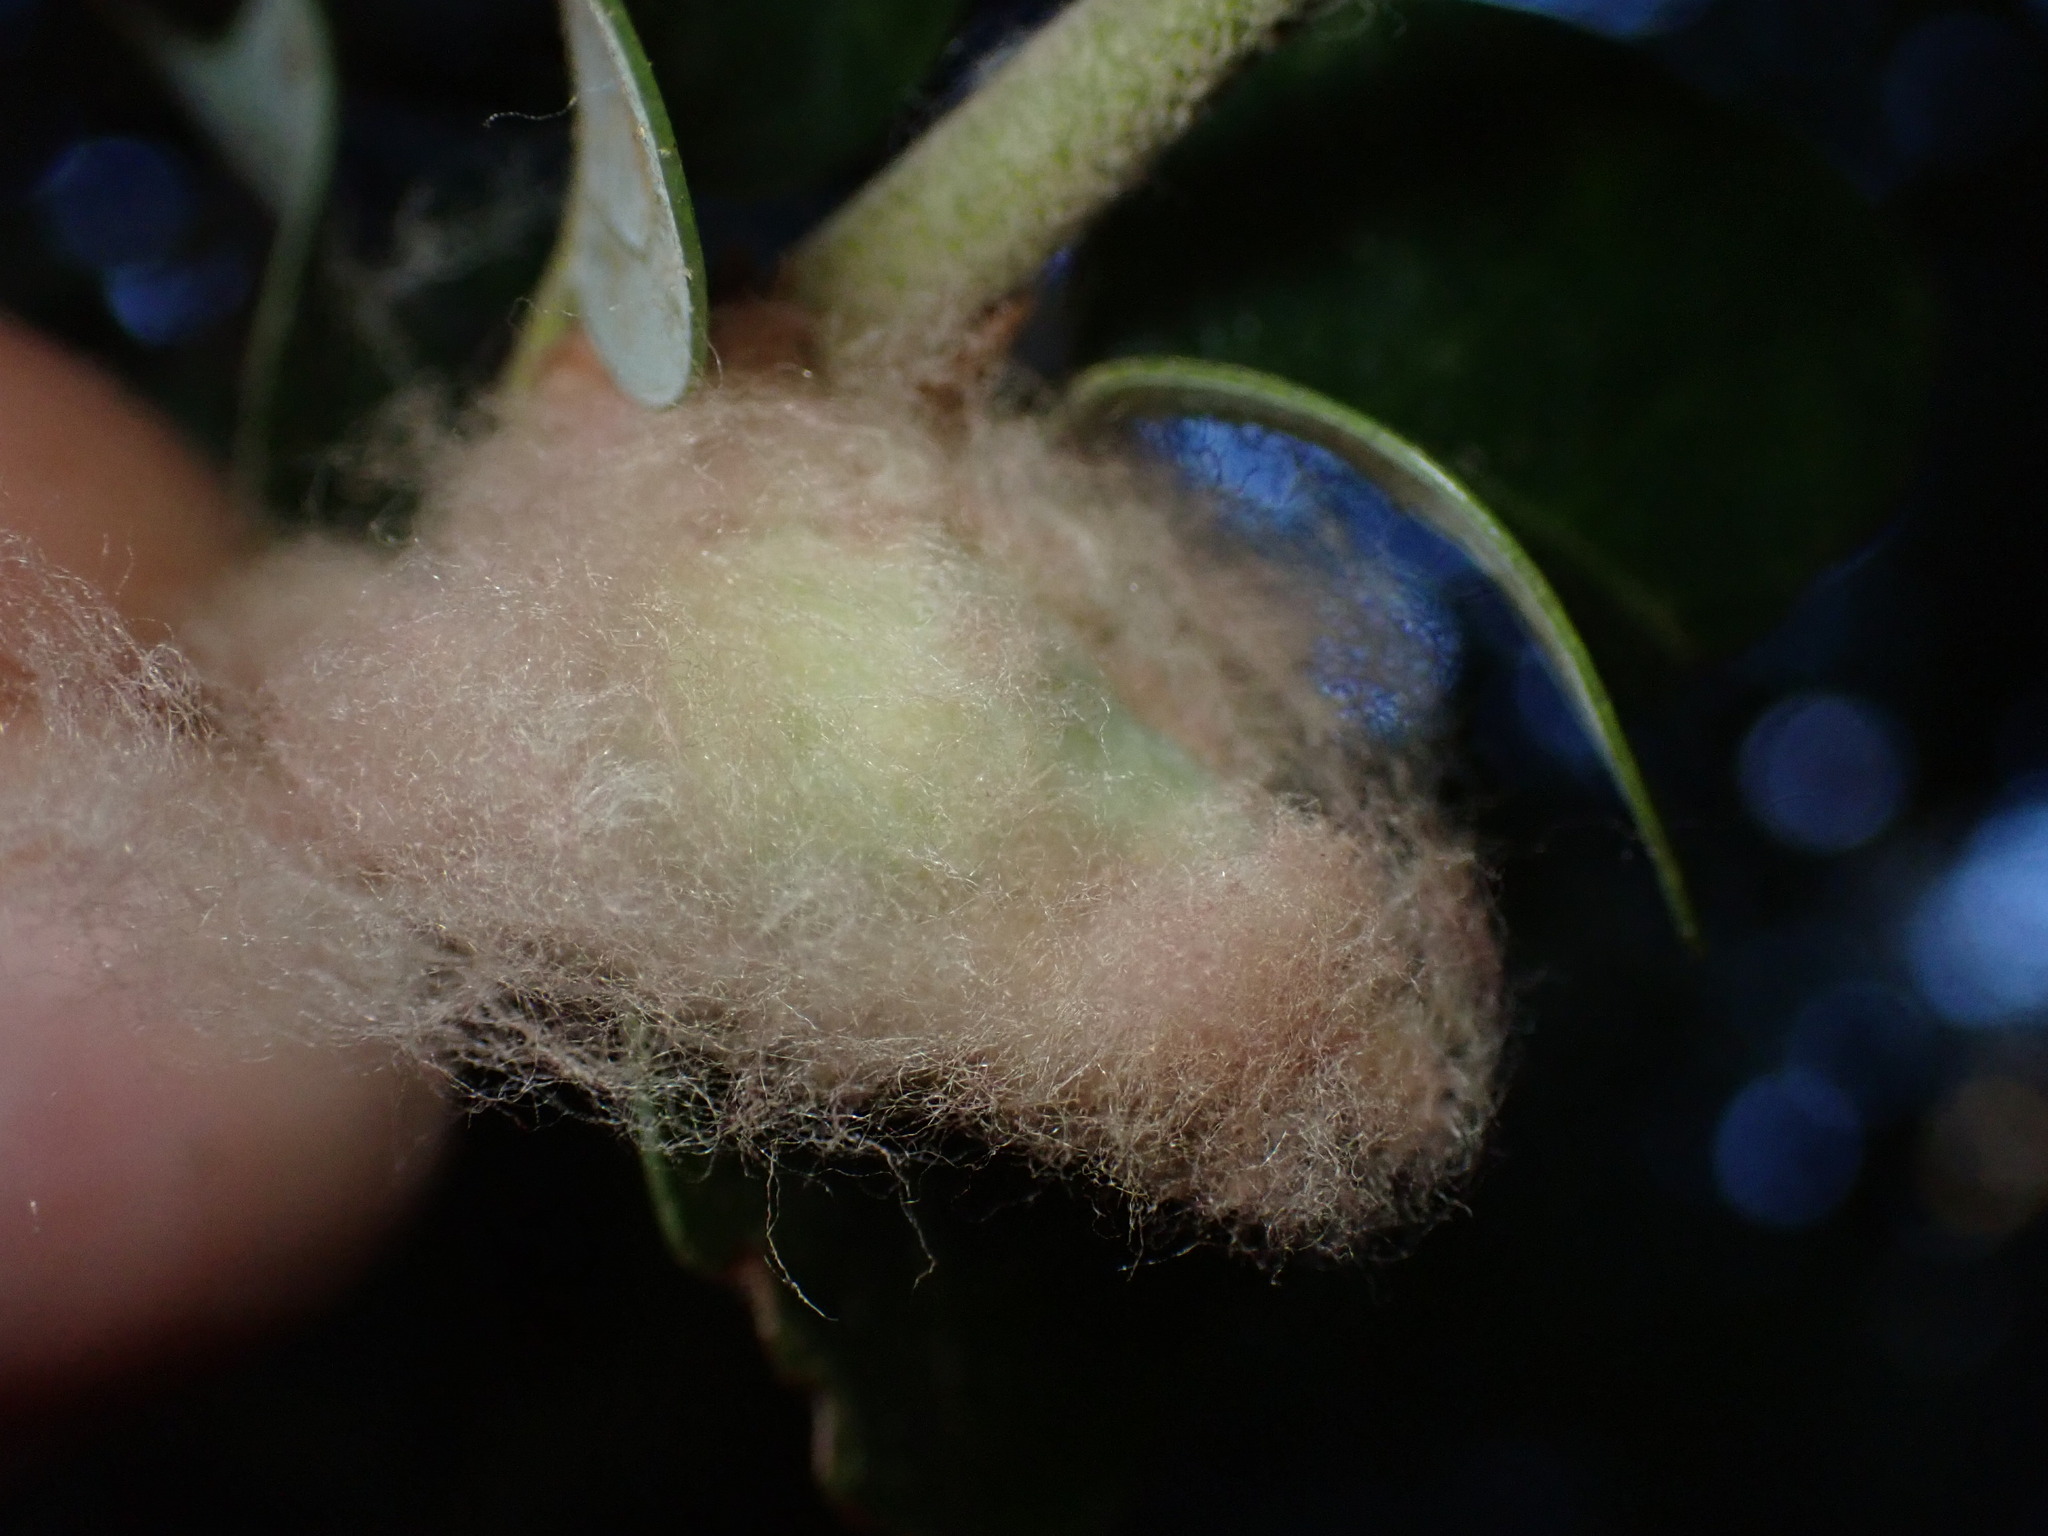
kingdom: Animalia
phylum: Arthropoda
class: Insecta
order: Hymenoptera
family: Cynipidae
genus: Heteroecus
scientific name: Heteroecus
